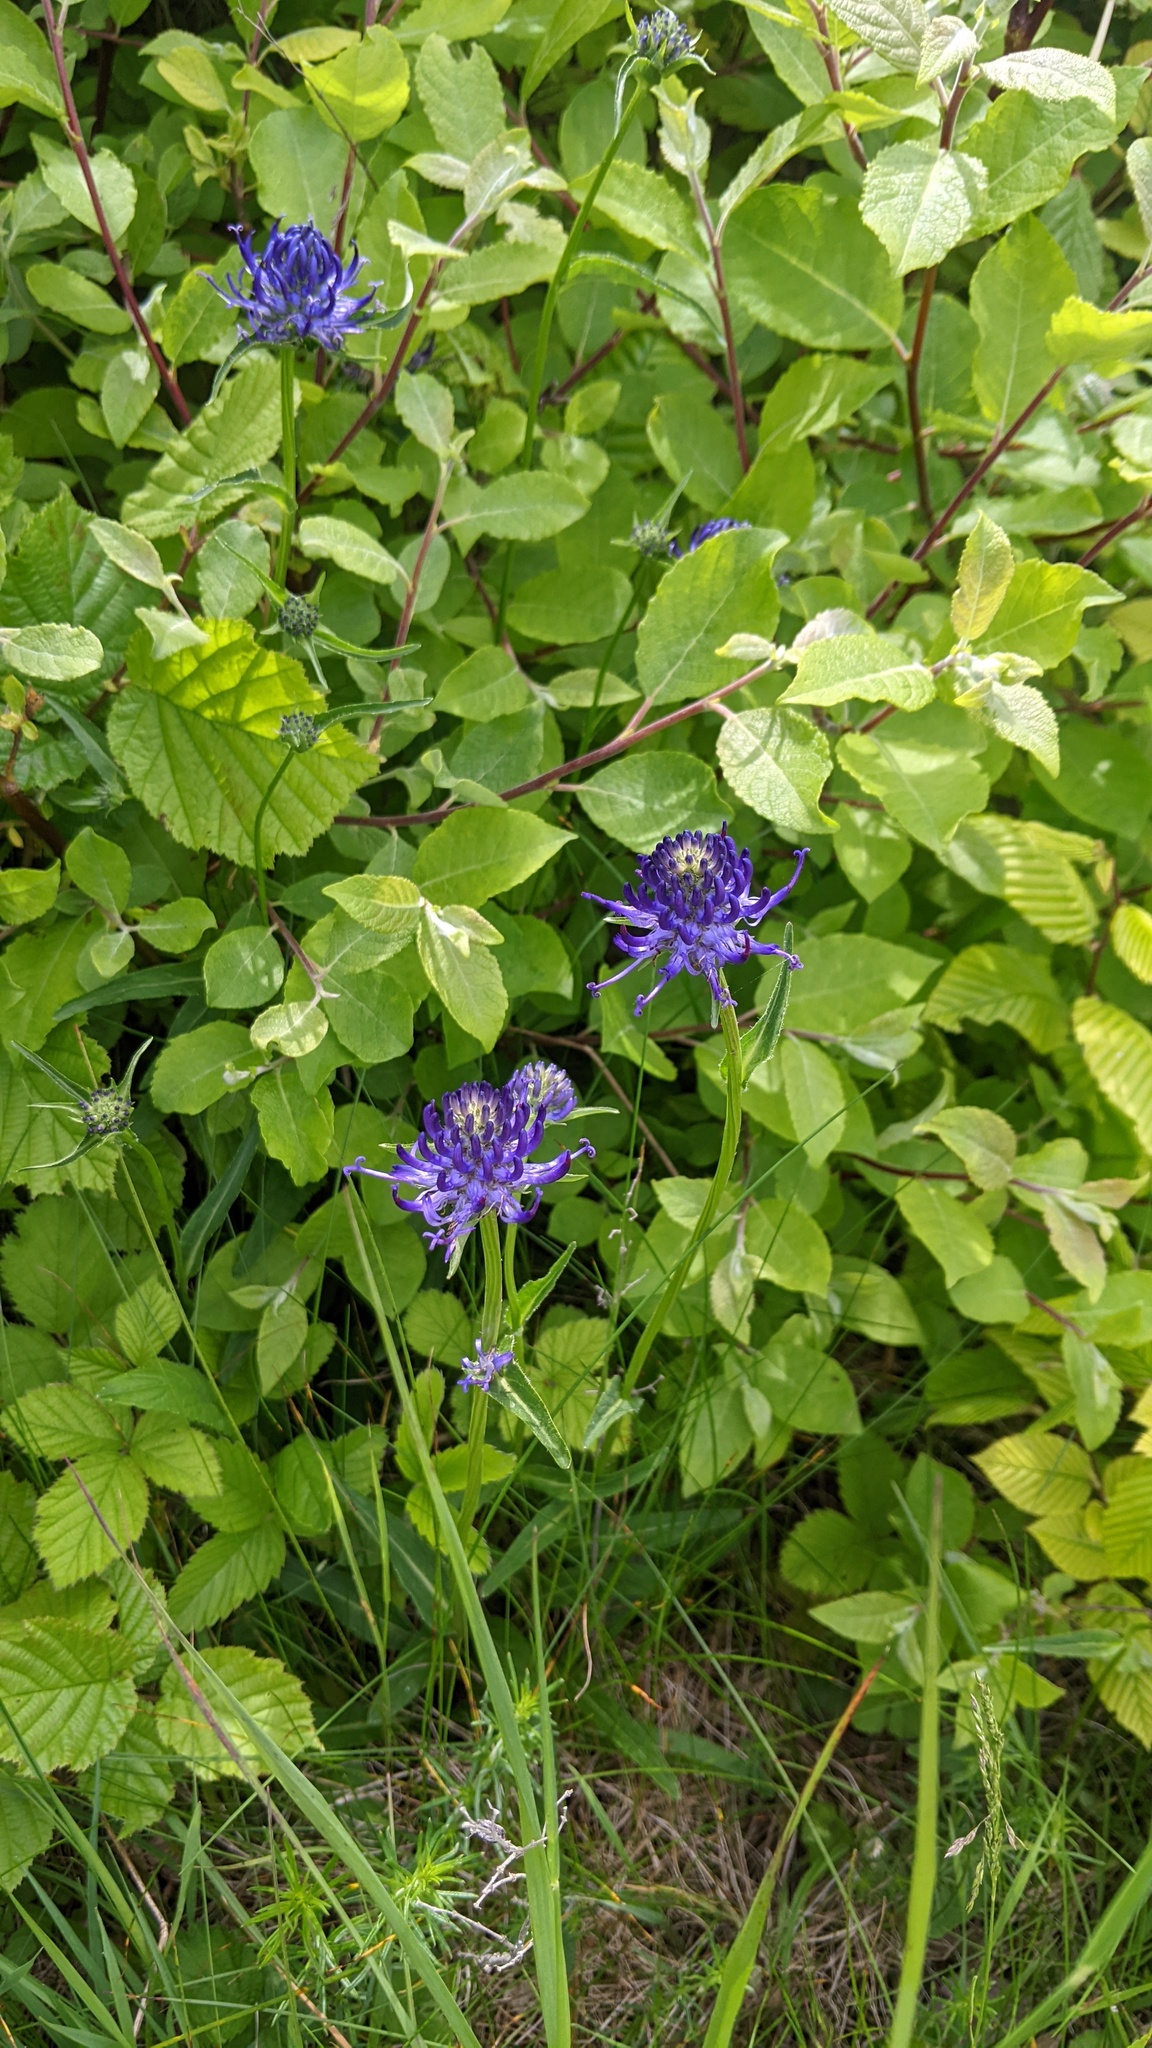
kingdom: Plantae
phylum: Tracheophyta
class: Magnoliopsida
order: Asterales
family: Campanulaceae
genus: Phyteuma
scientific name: Phyteuma orbiculare
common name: Round-headed rampion
